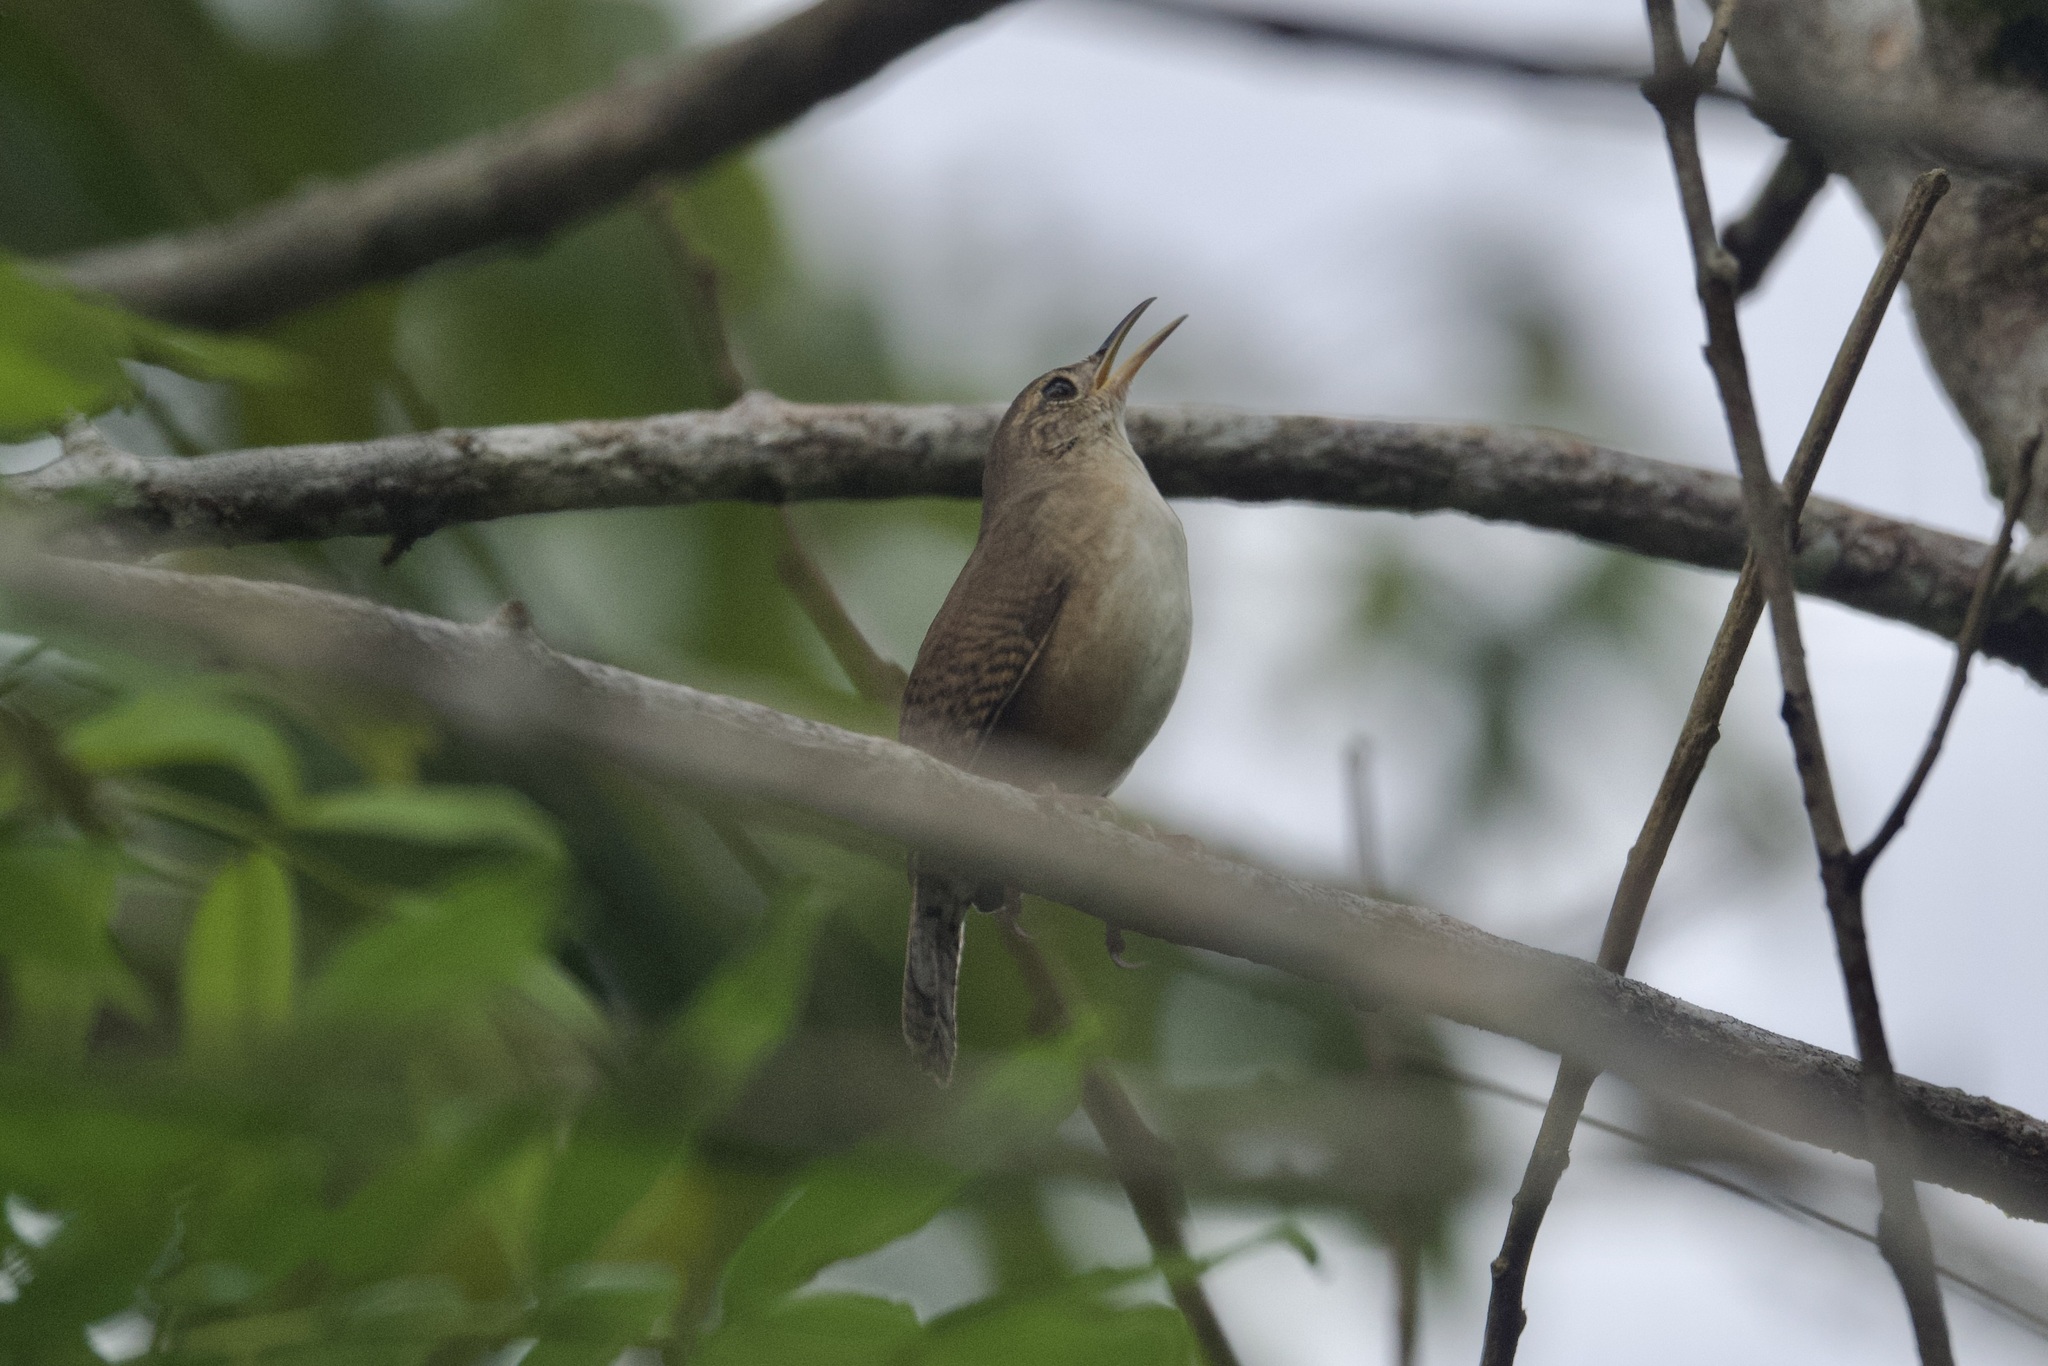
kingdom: Animalia
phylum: Chordata
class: Aves
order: Passeriformes
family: Troglodytidae
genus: Troglodytes
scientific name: Troglodytes aedon
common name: House wren
